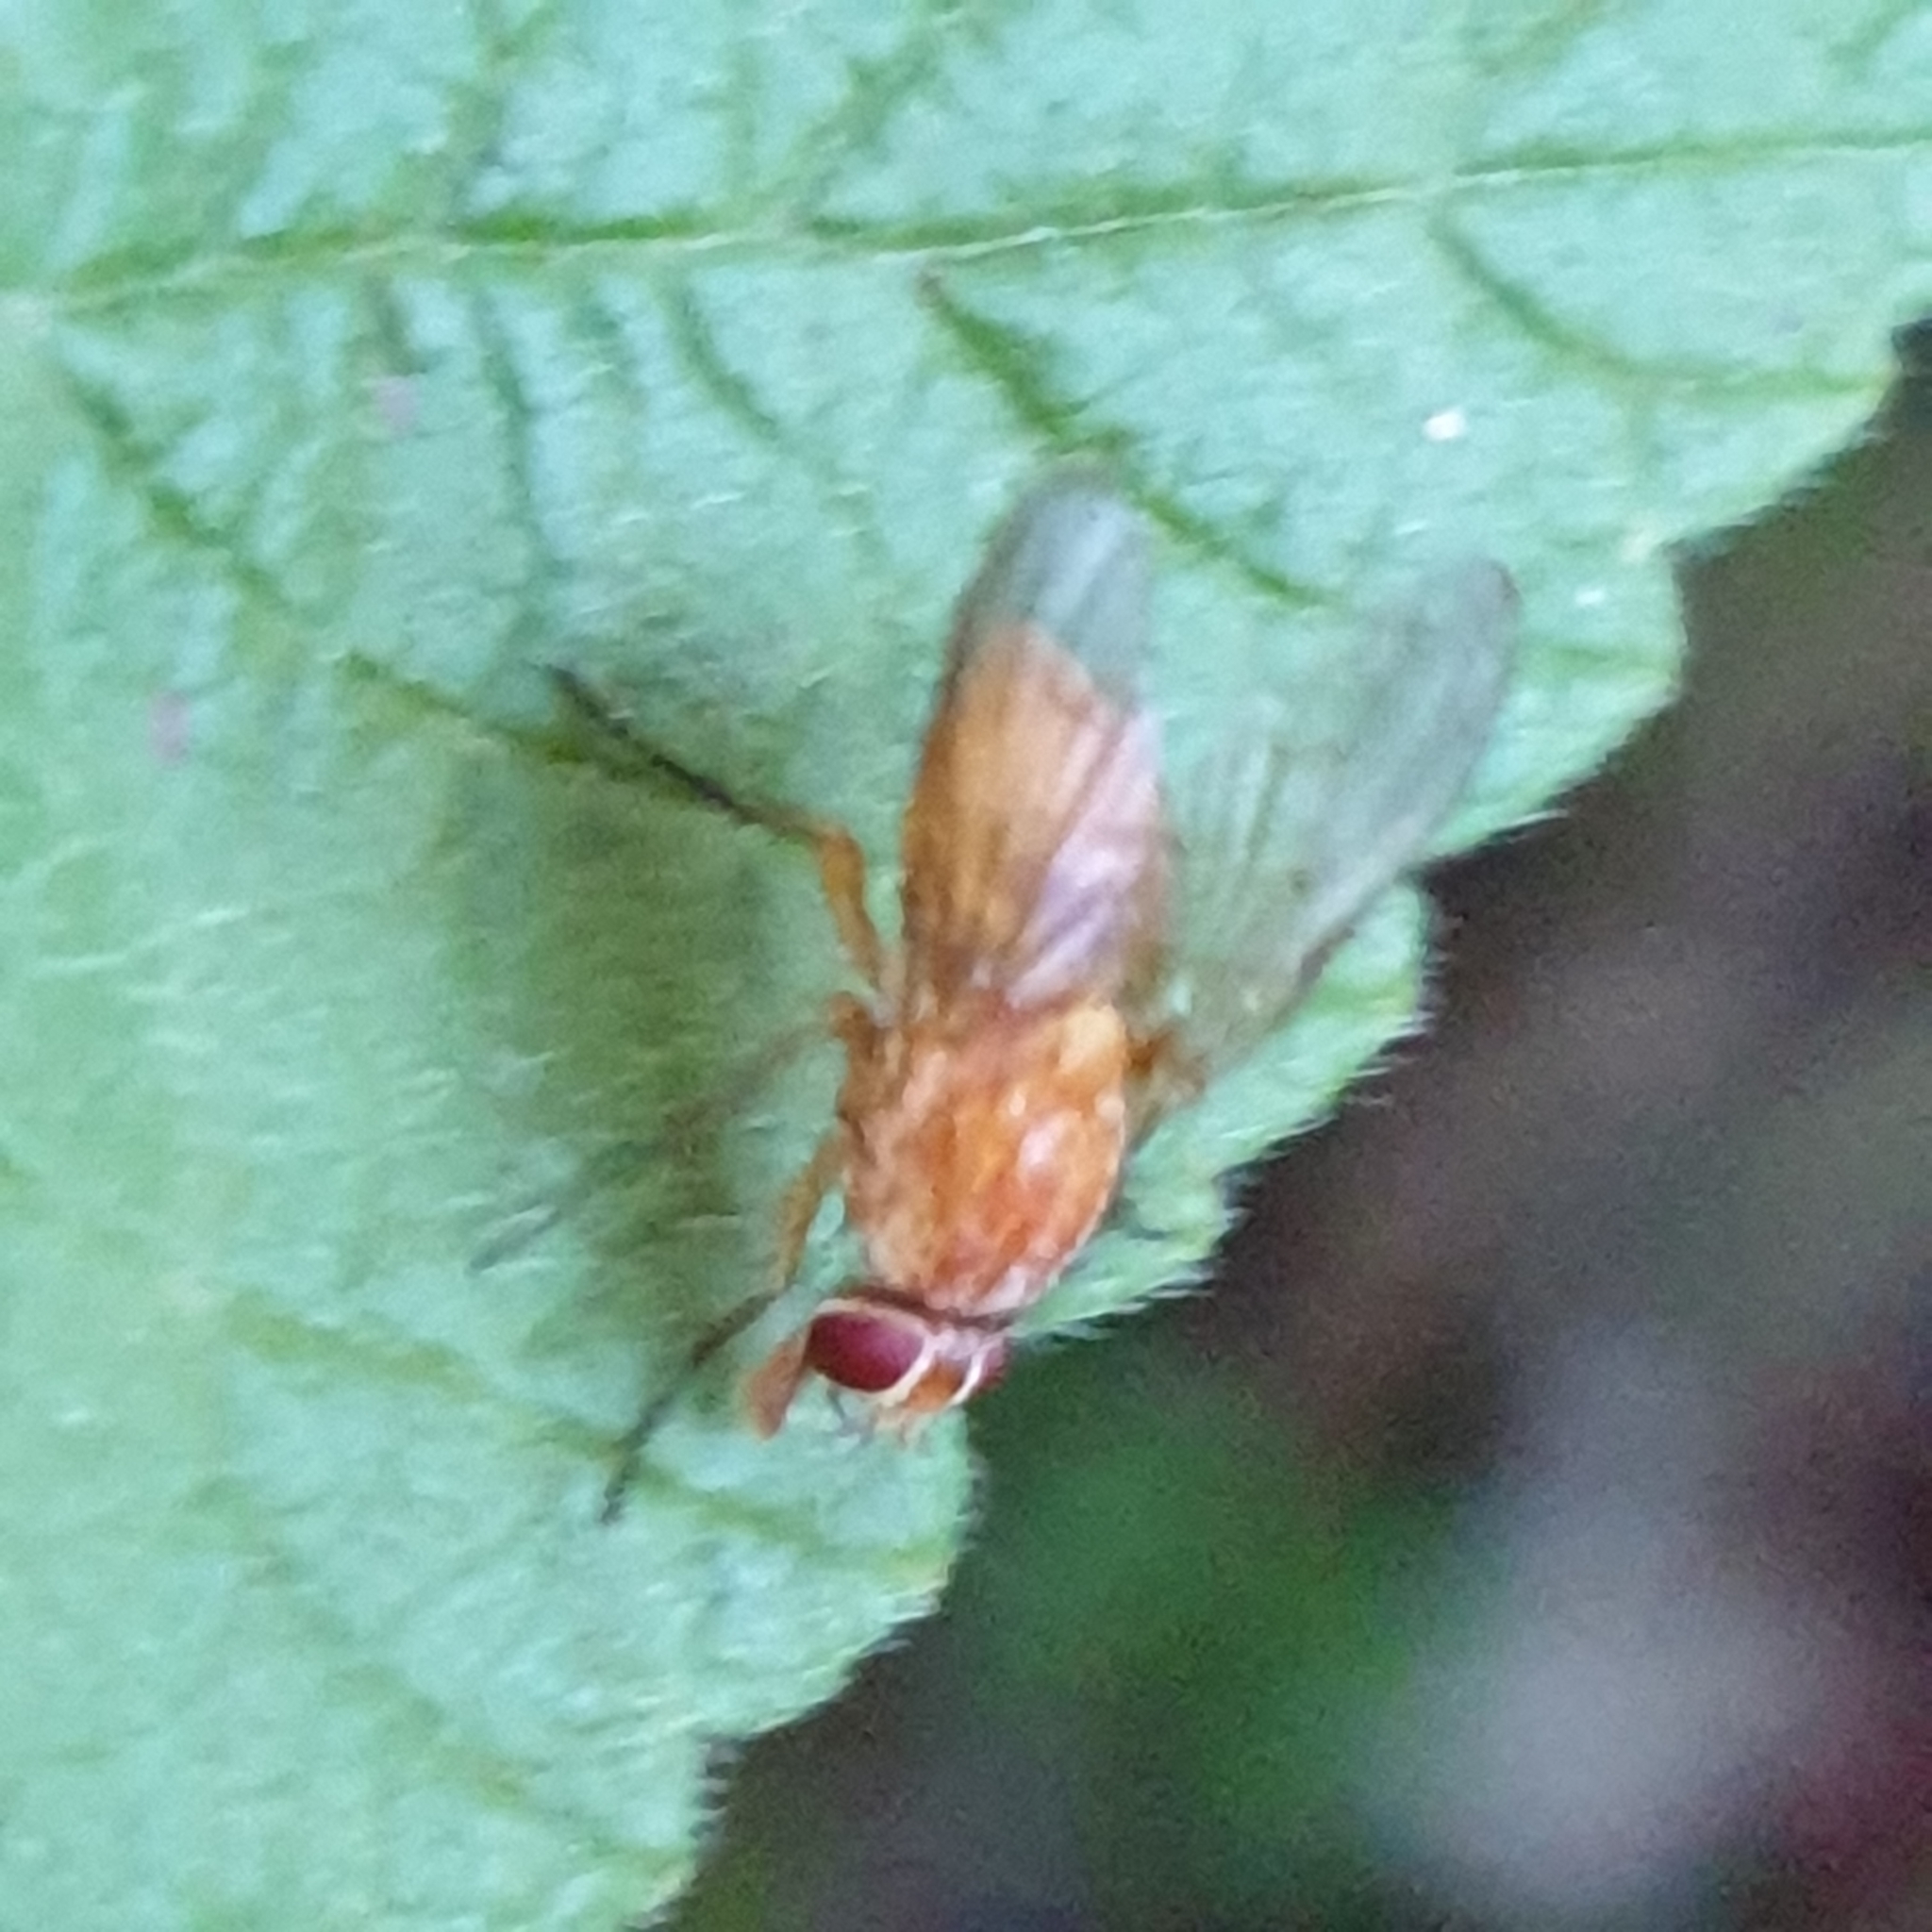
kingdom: Animalia
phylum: Arthropoda
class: Insecta
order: Diptera
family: Muscidae
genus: Phaonia
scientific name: Phaonia pallida
